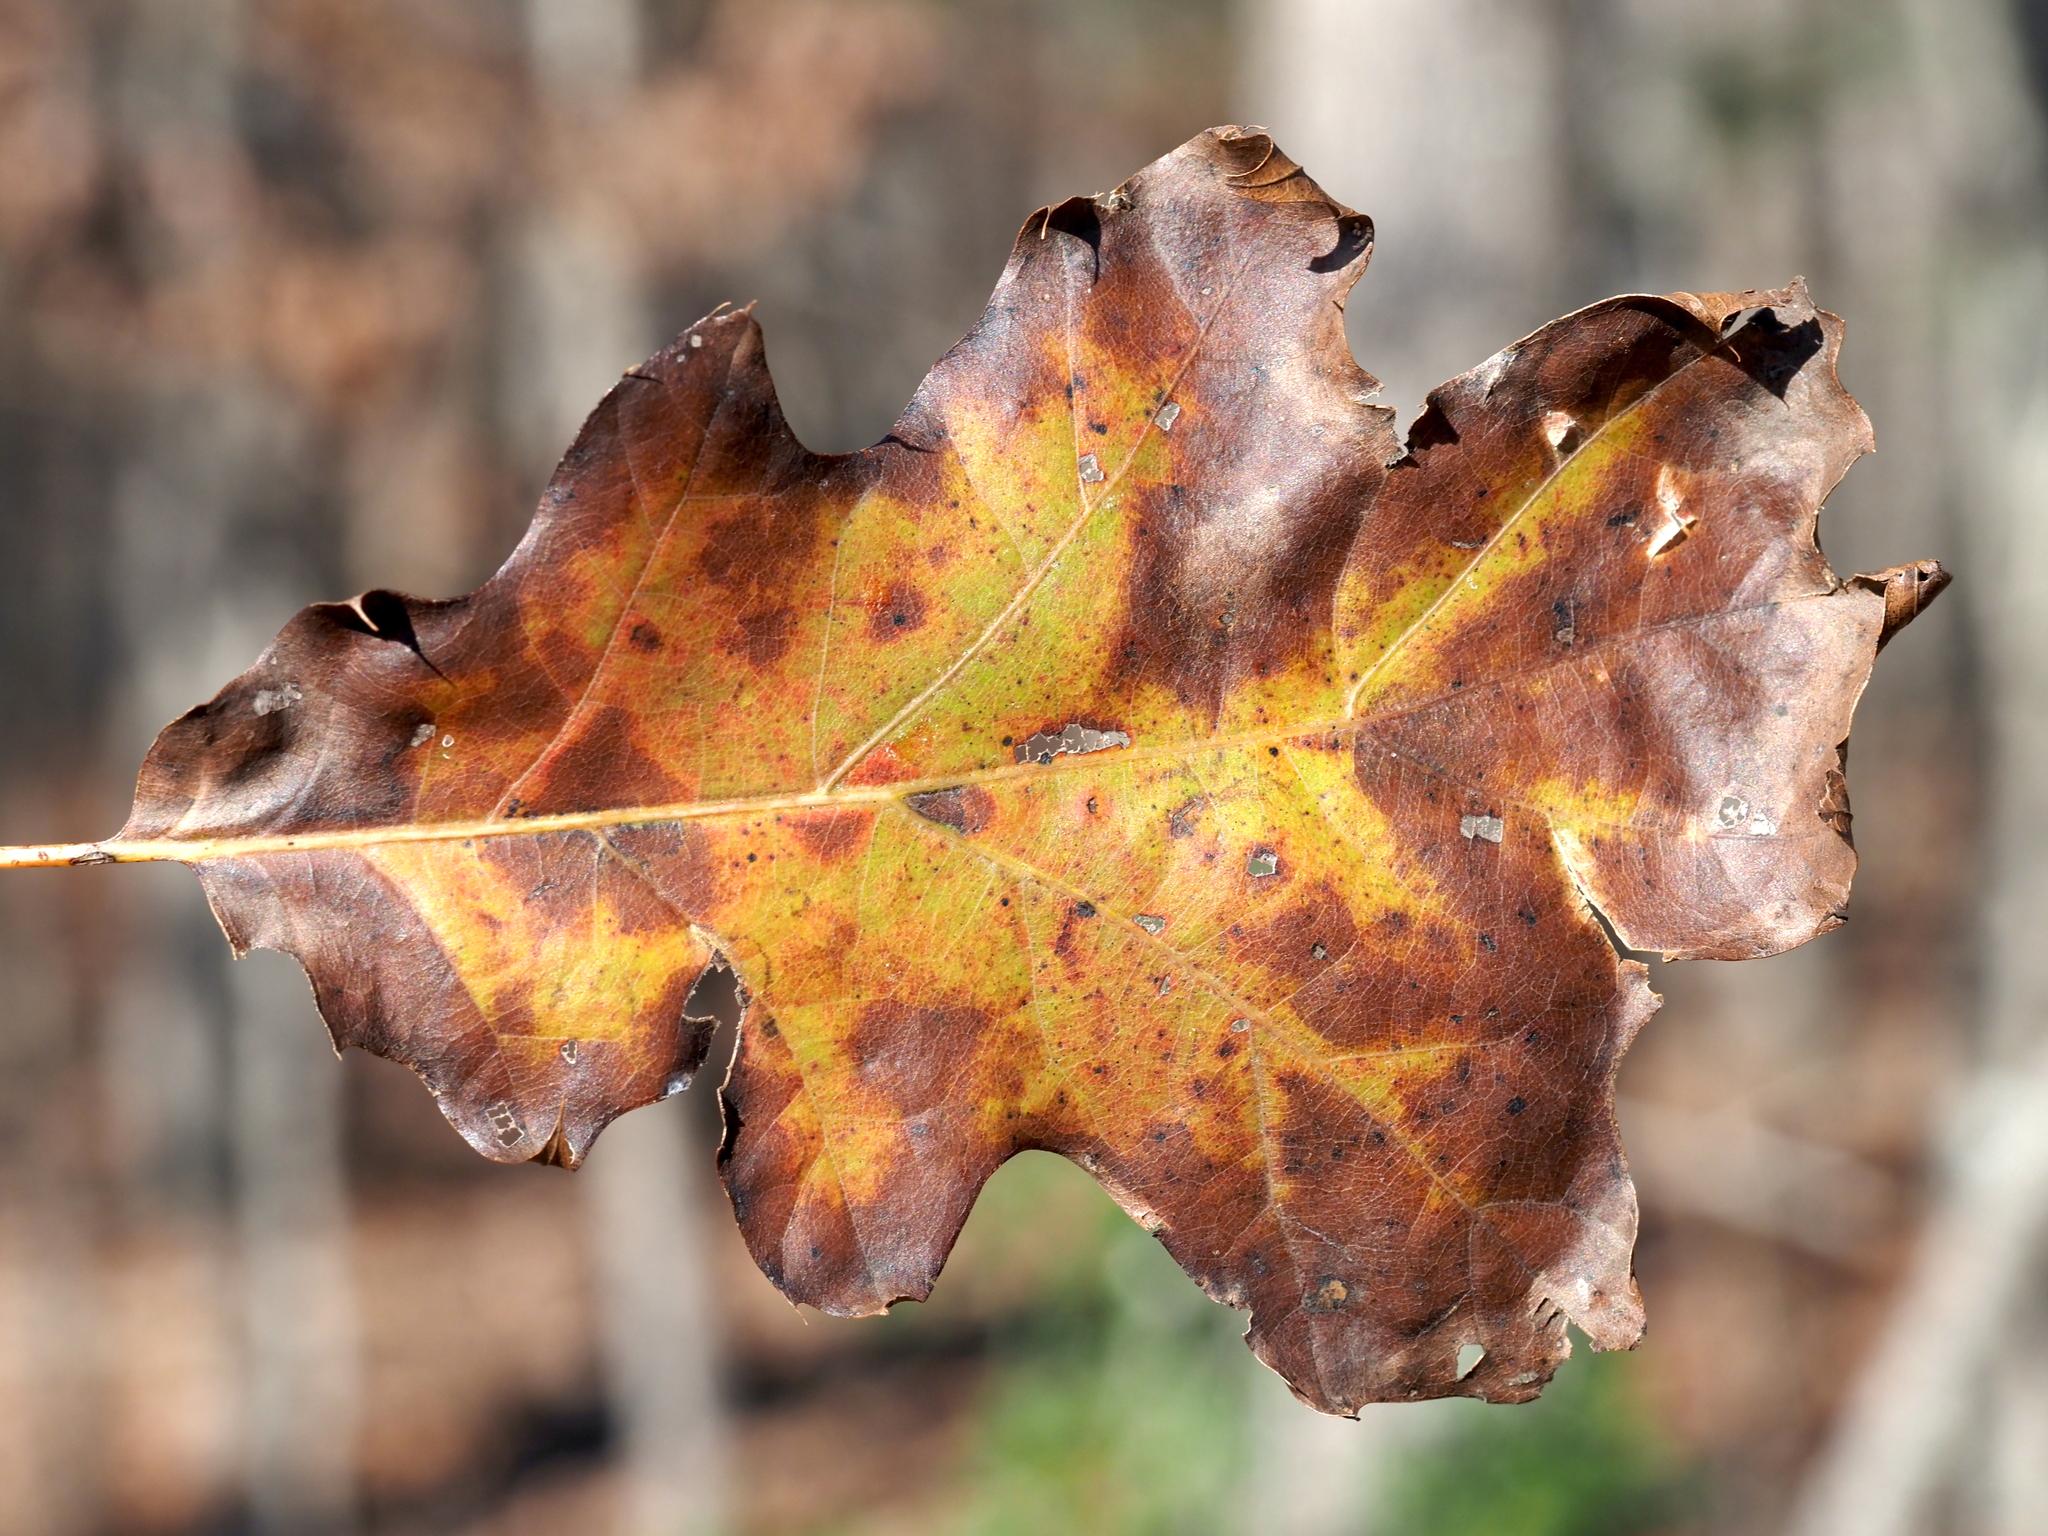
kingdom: Plantae
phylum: Tracheophyta
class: Magnoliopsida
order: Fagales
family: Fagaceae
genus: Quercus
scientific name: Quercus rubra
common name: Red oak
